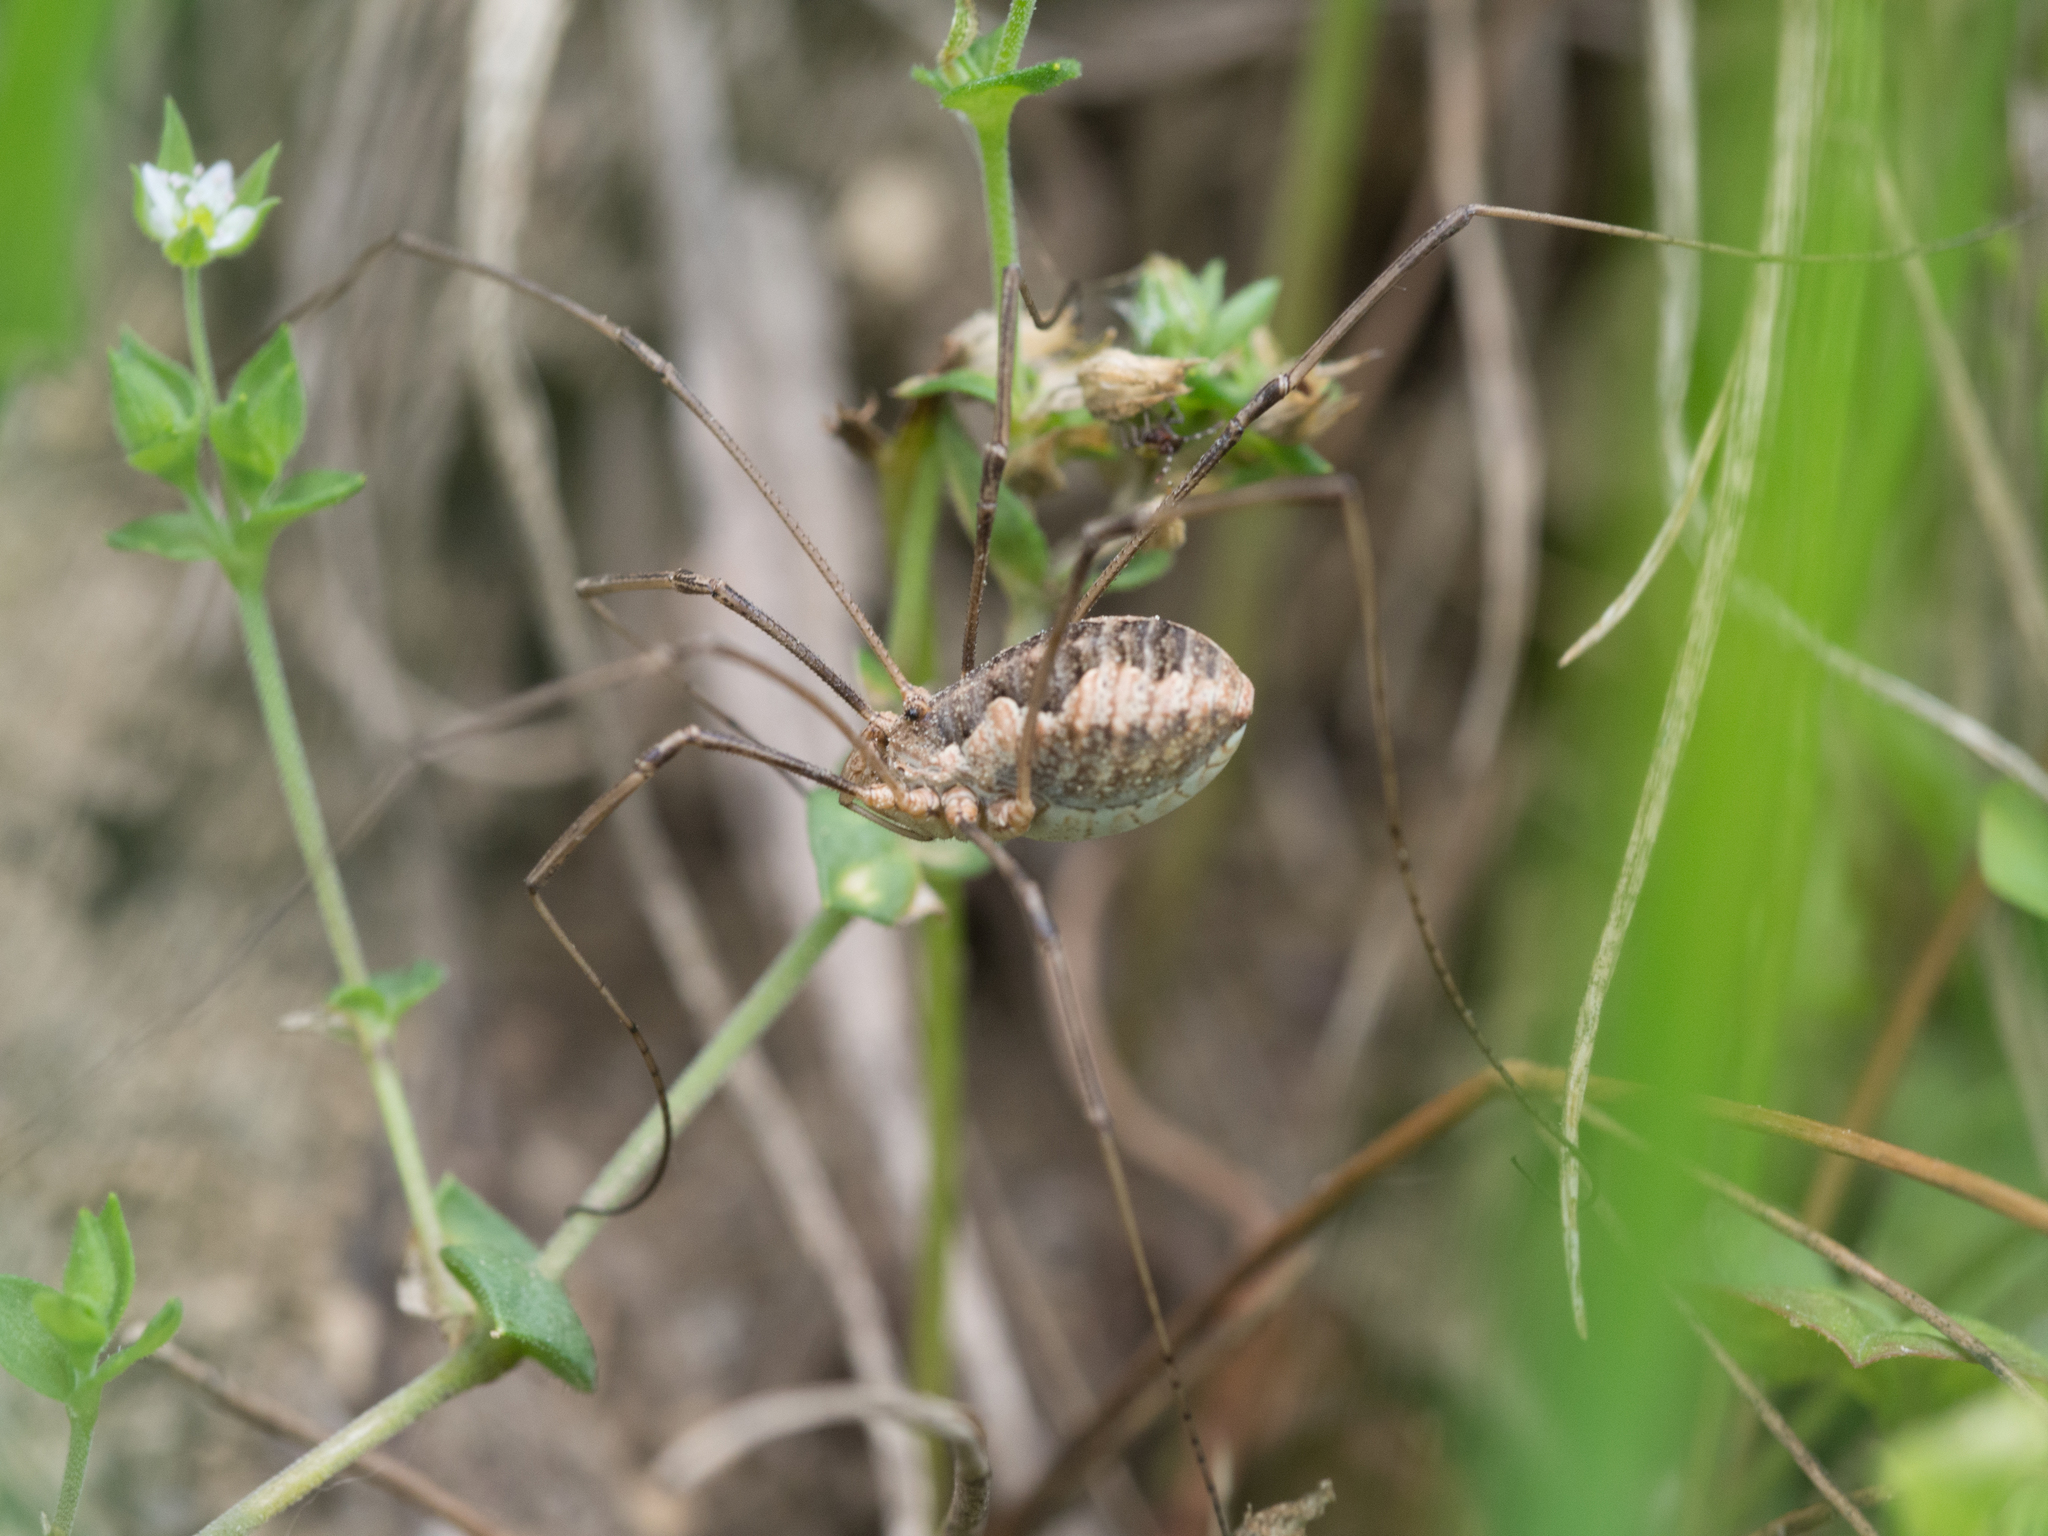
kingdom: Animalia
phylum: Arthropoda
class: Arachnida
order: Opiliones
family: Phalangiidae
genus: Phalangium
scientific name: Phalangium opilio
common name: Daddy longleg
